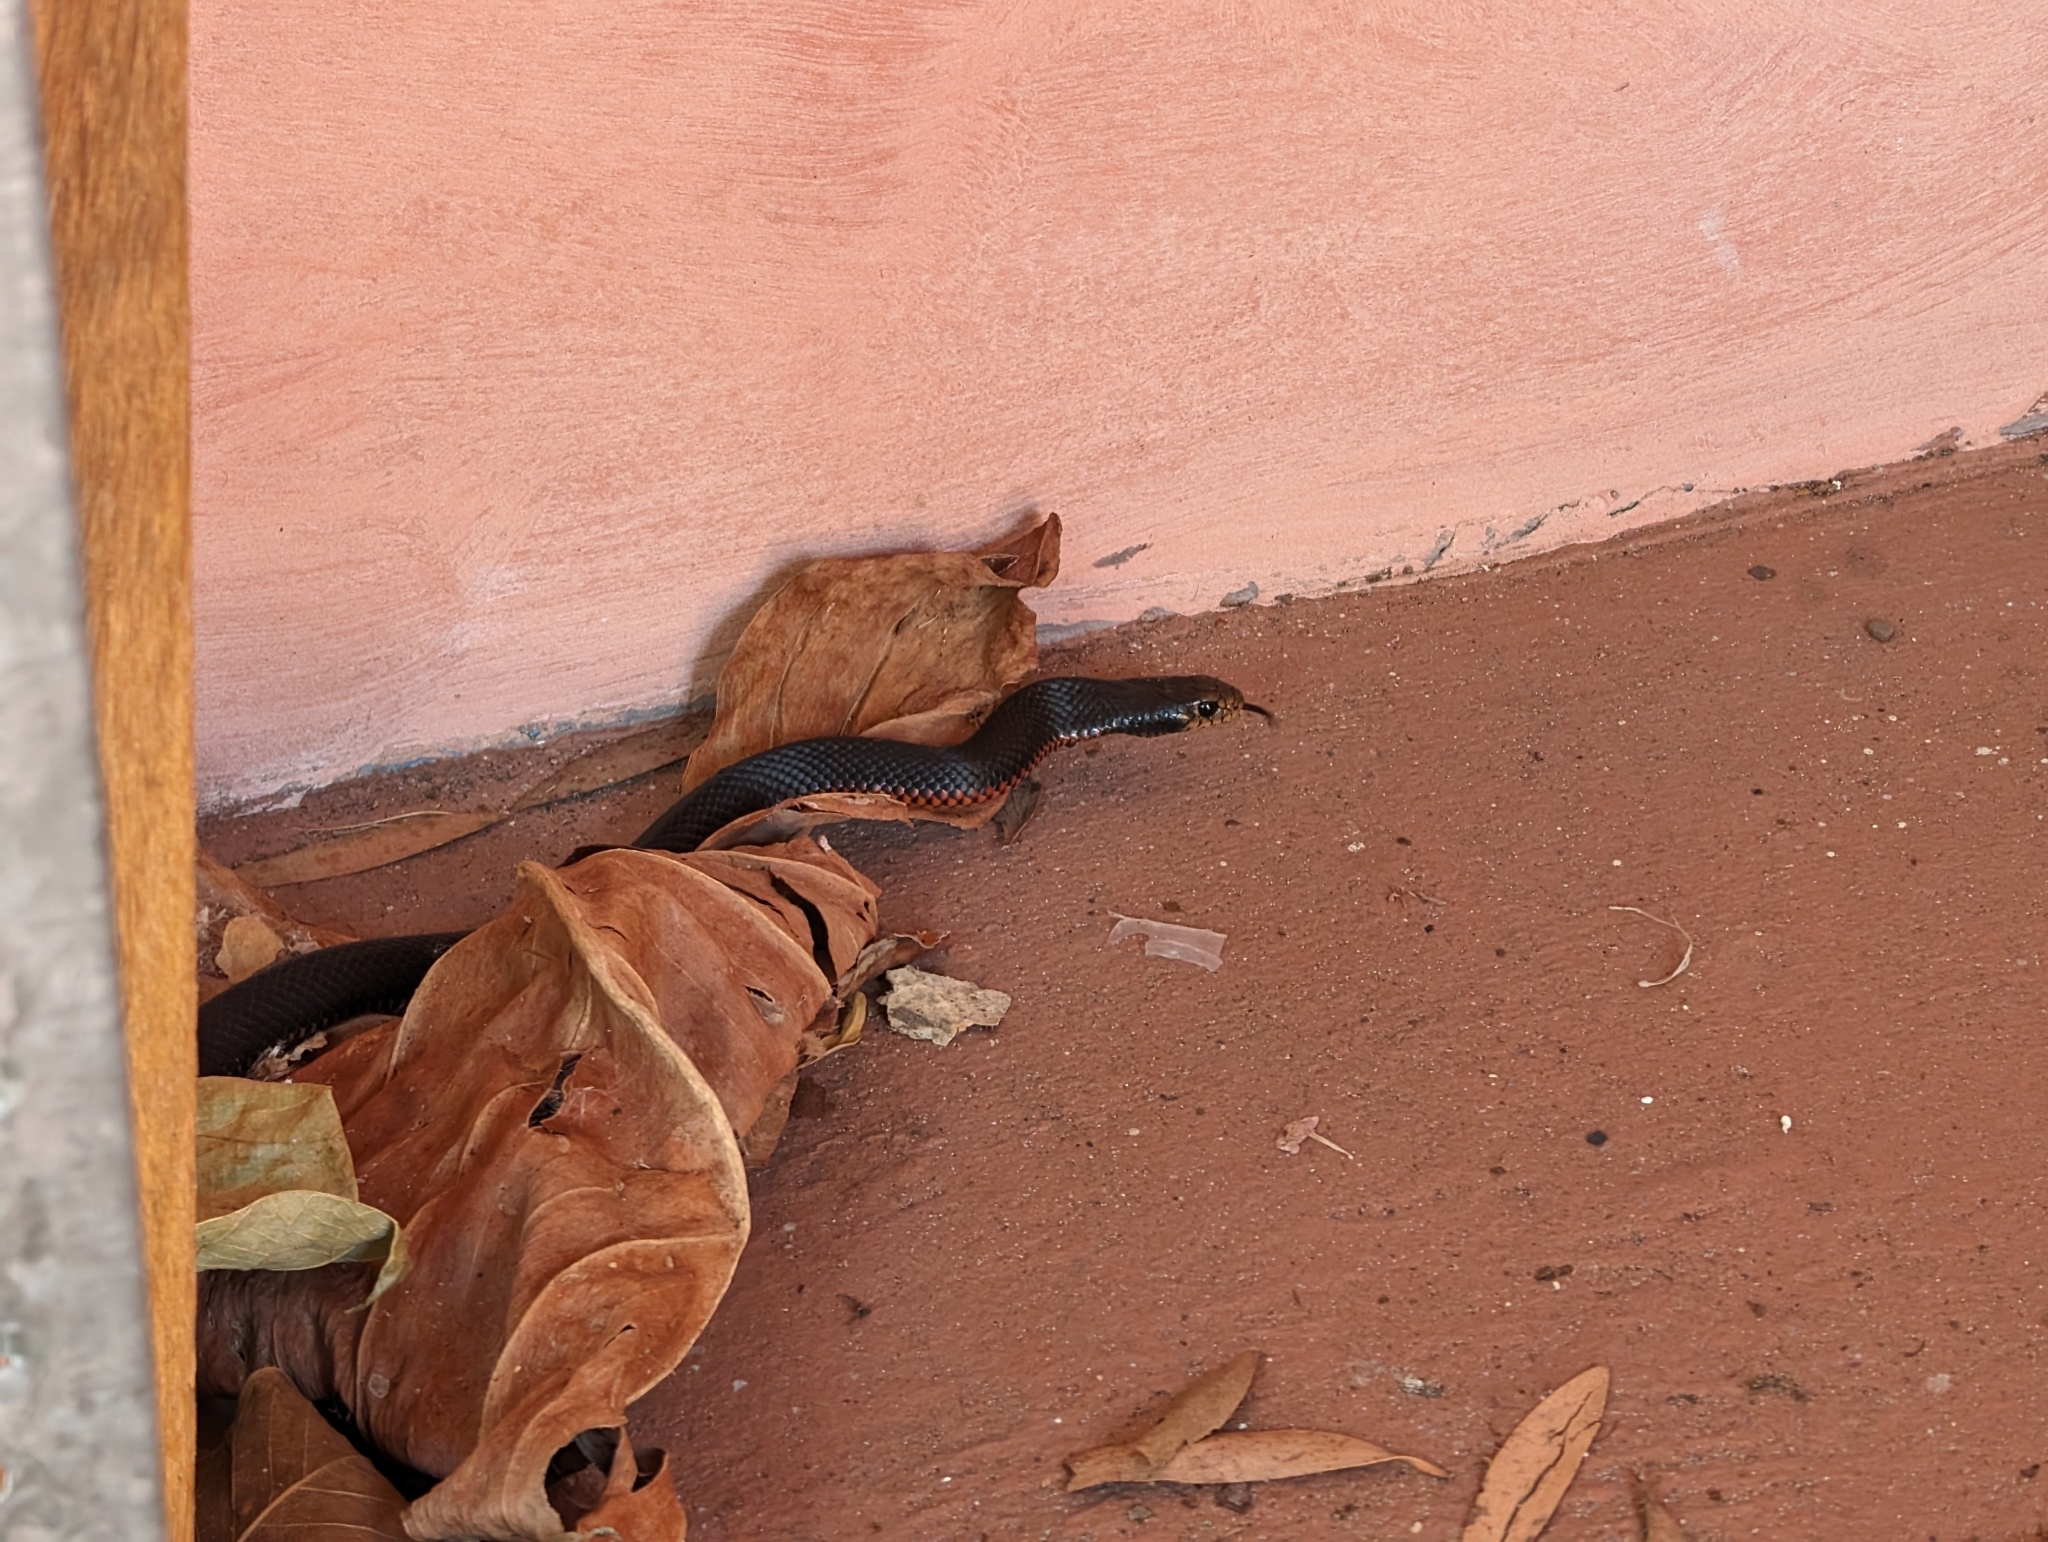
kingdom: Animalia
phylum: Chordata
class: Squamata
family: Elapidae
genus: Pseudechis
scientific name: Pseudechis porphyriacus
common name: Australian black snake
